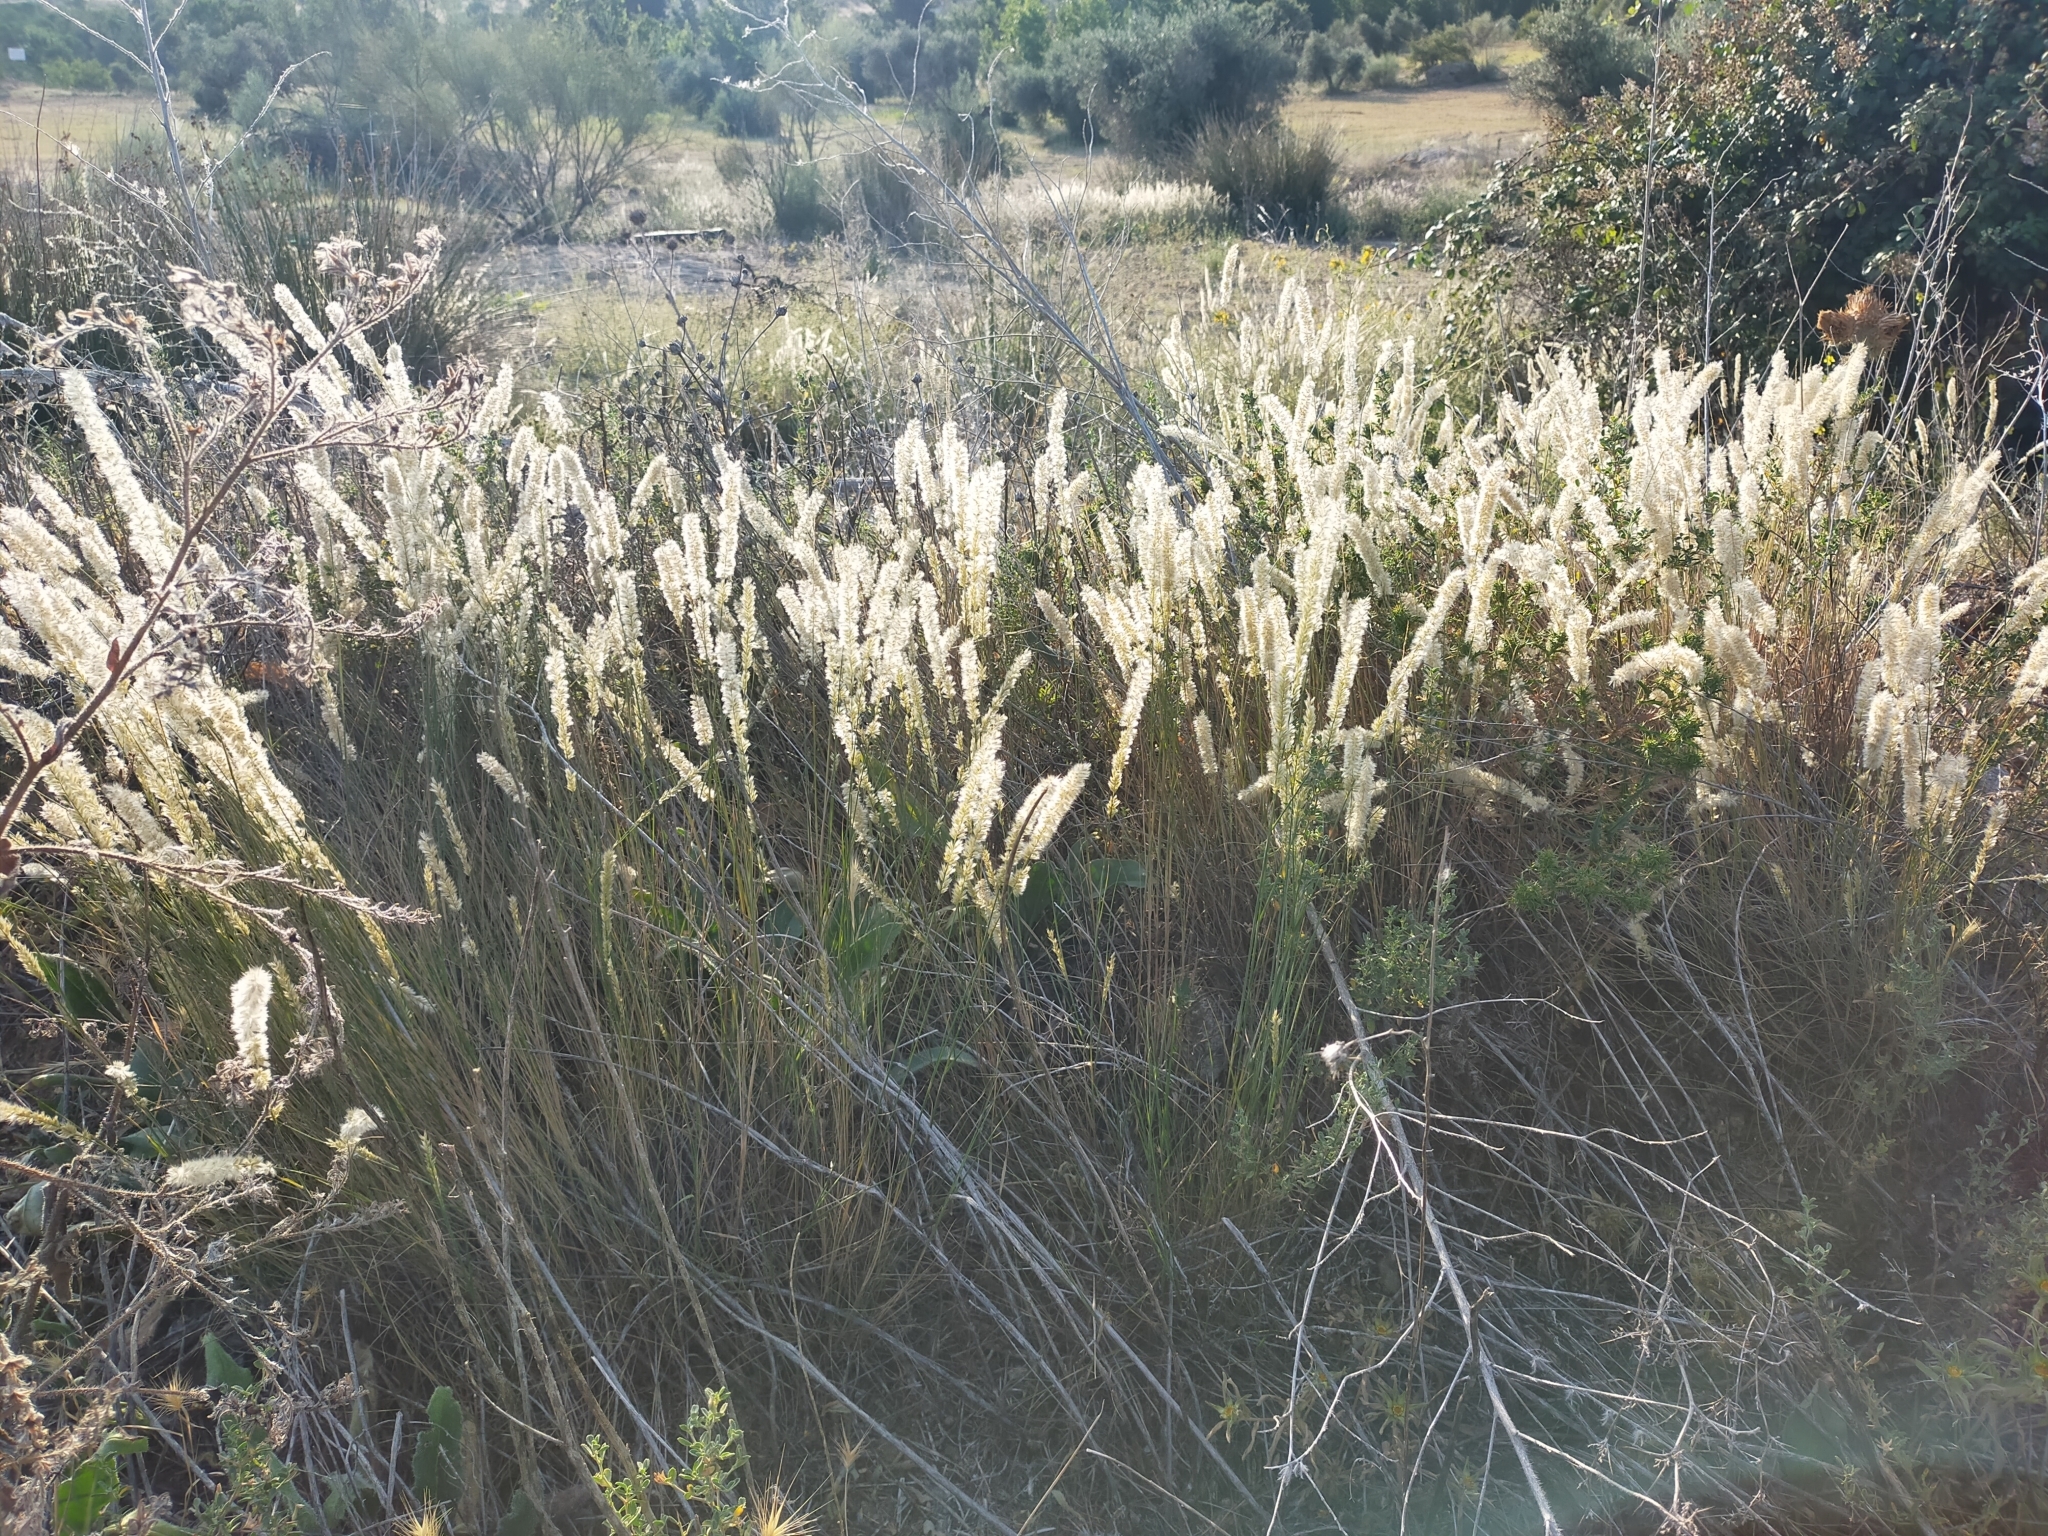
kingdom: Plantae
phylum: Tracheophyta
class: Liliopsida
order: Poales
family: Poaceae
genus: Melica
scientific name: Melica ciliata
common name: Hairy melicgrass
